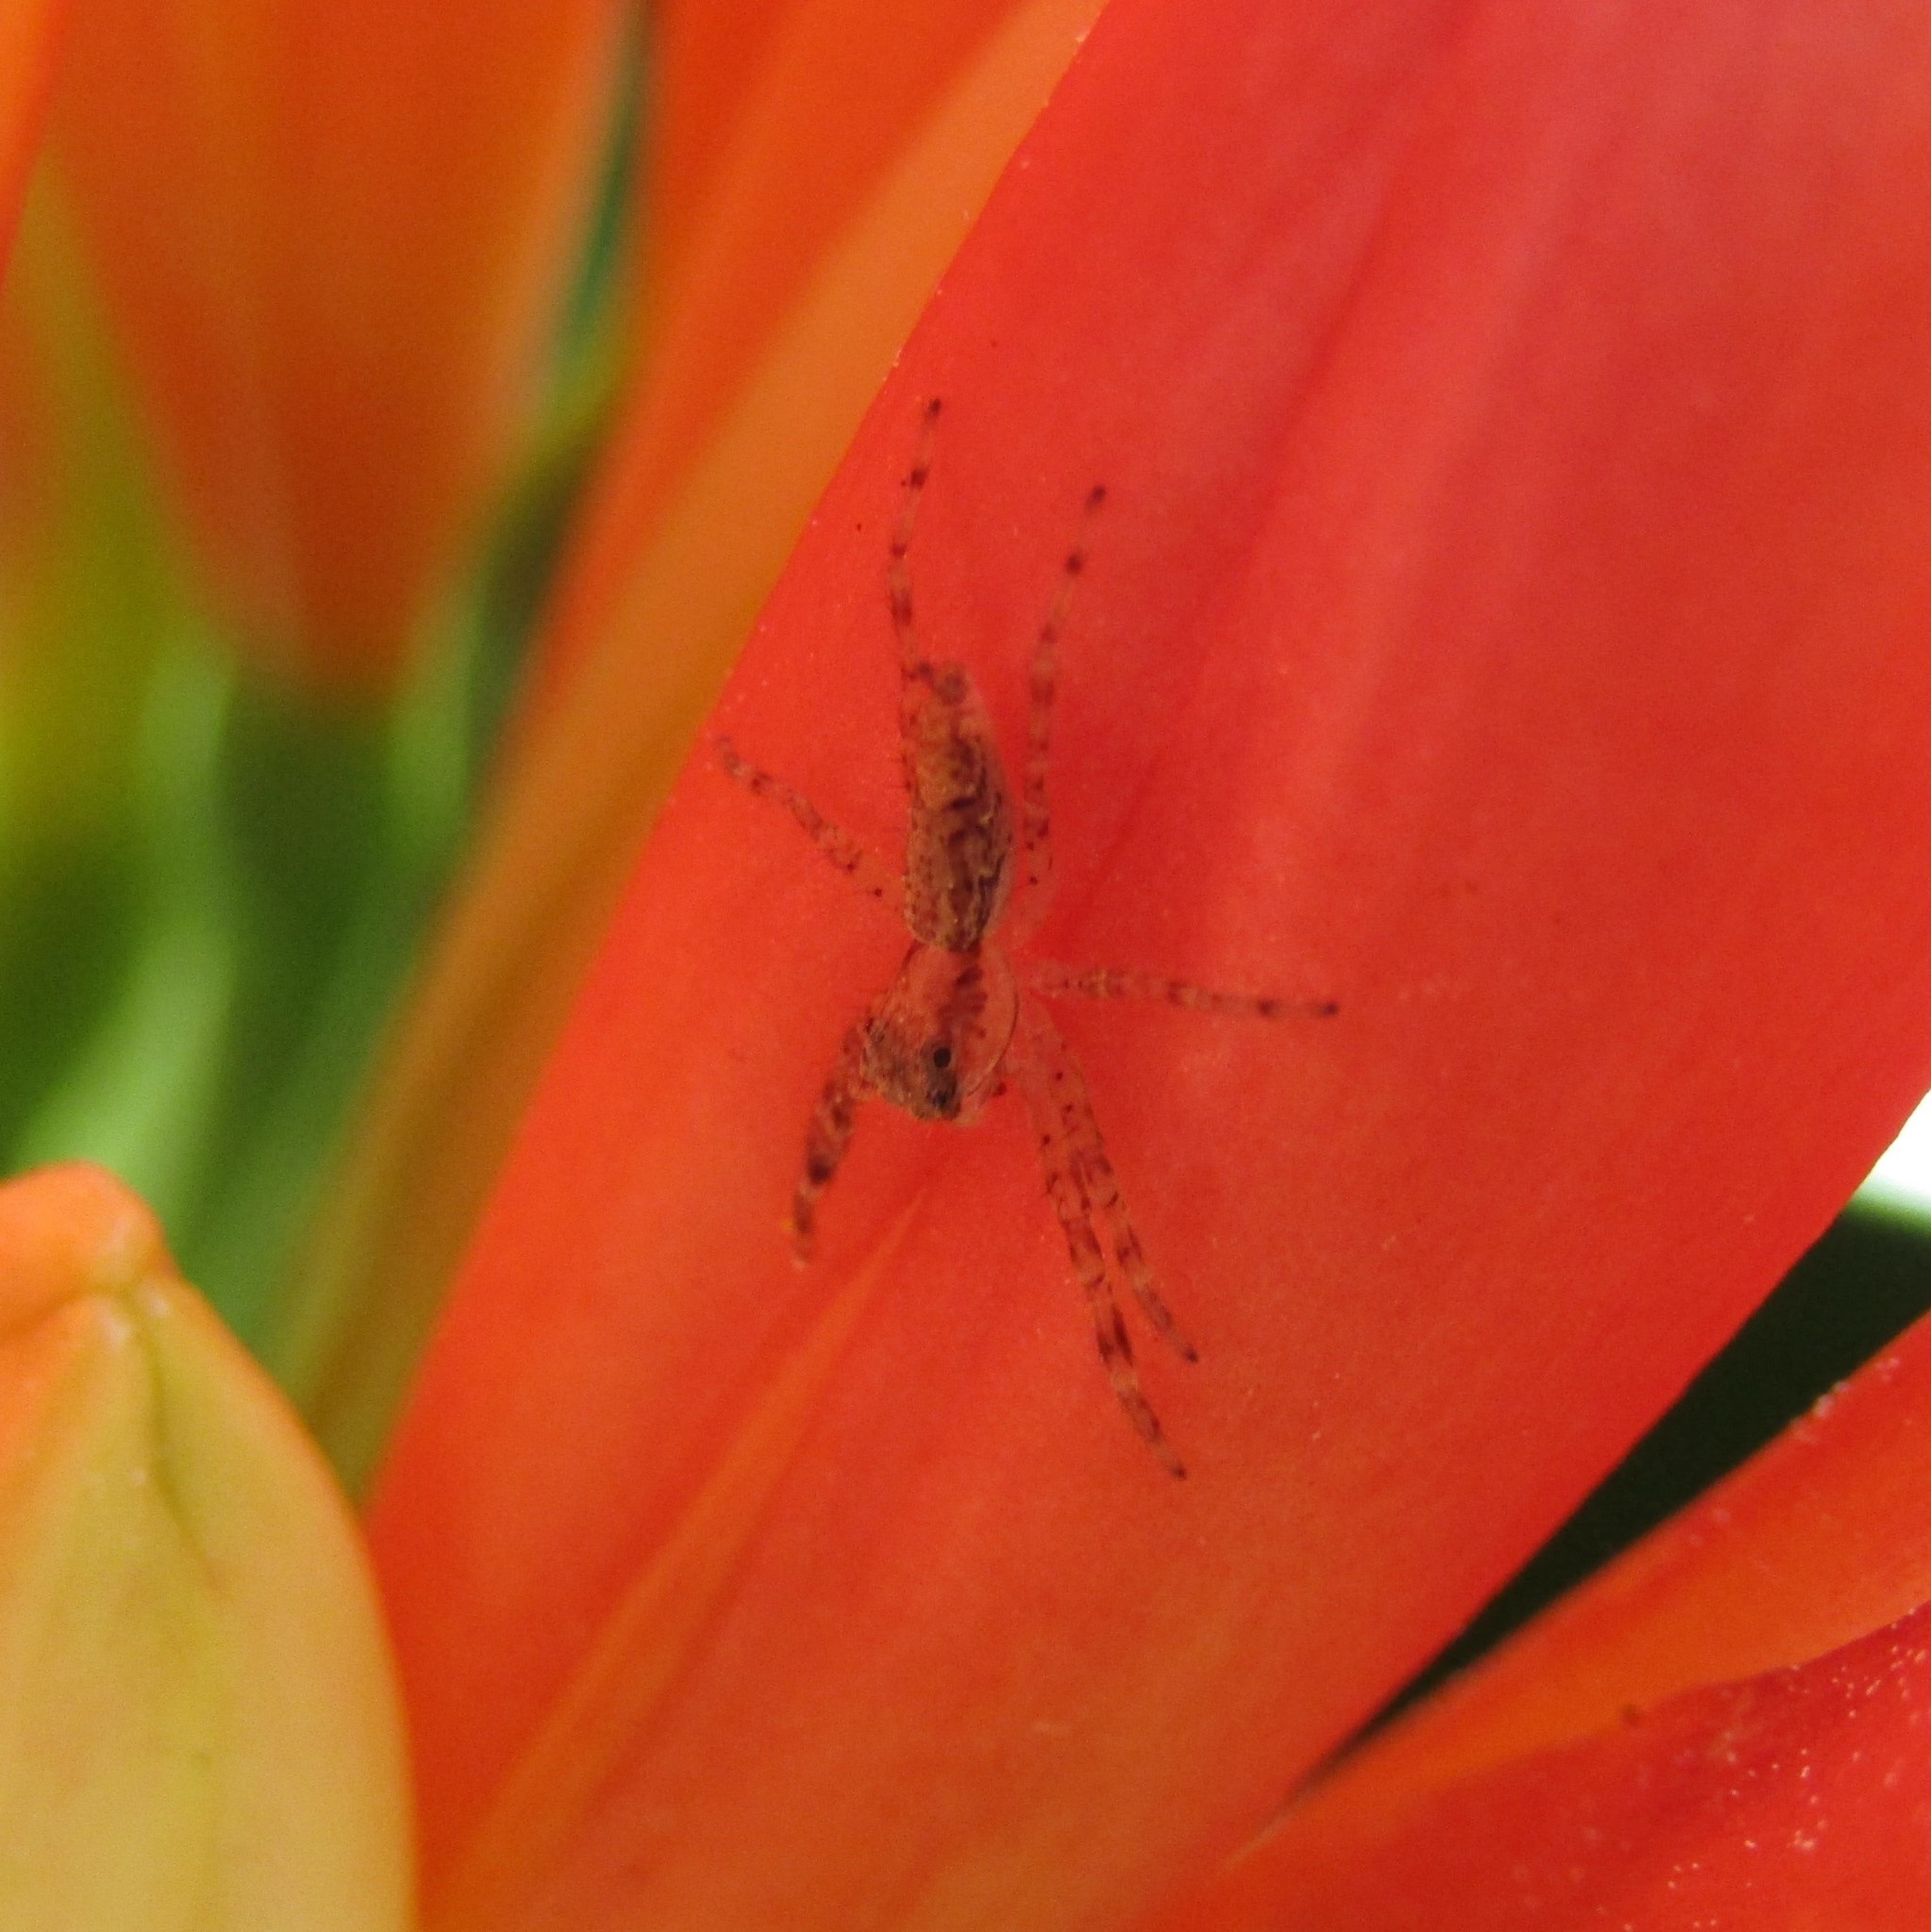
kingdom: Animalia
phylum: Arthropoda
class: Arachnida
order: Araneae
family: Salticidae
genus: Helpis
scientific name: Helpis minitabunda
